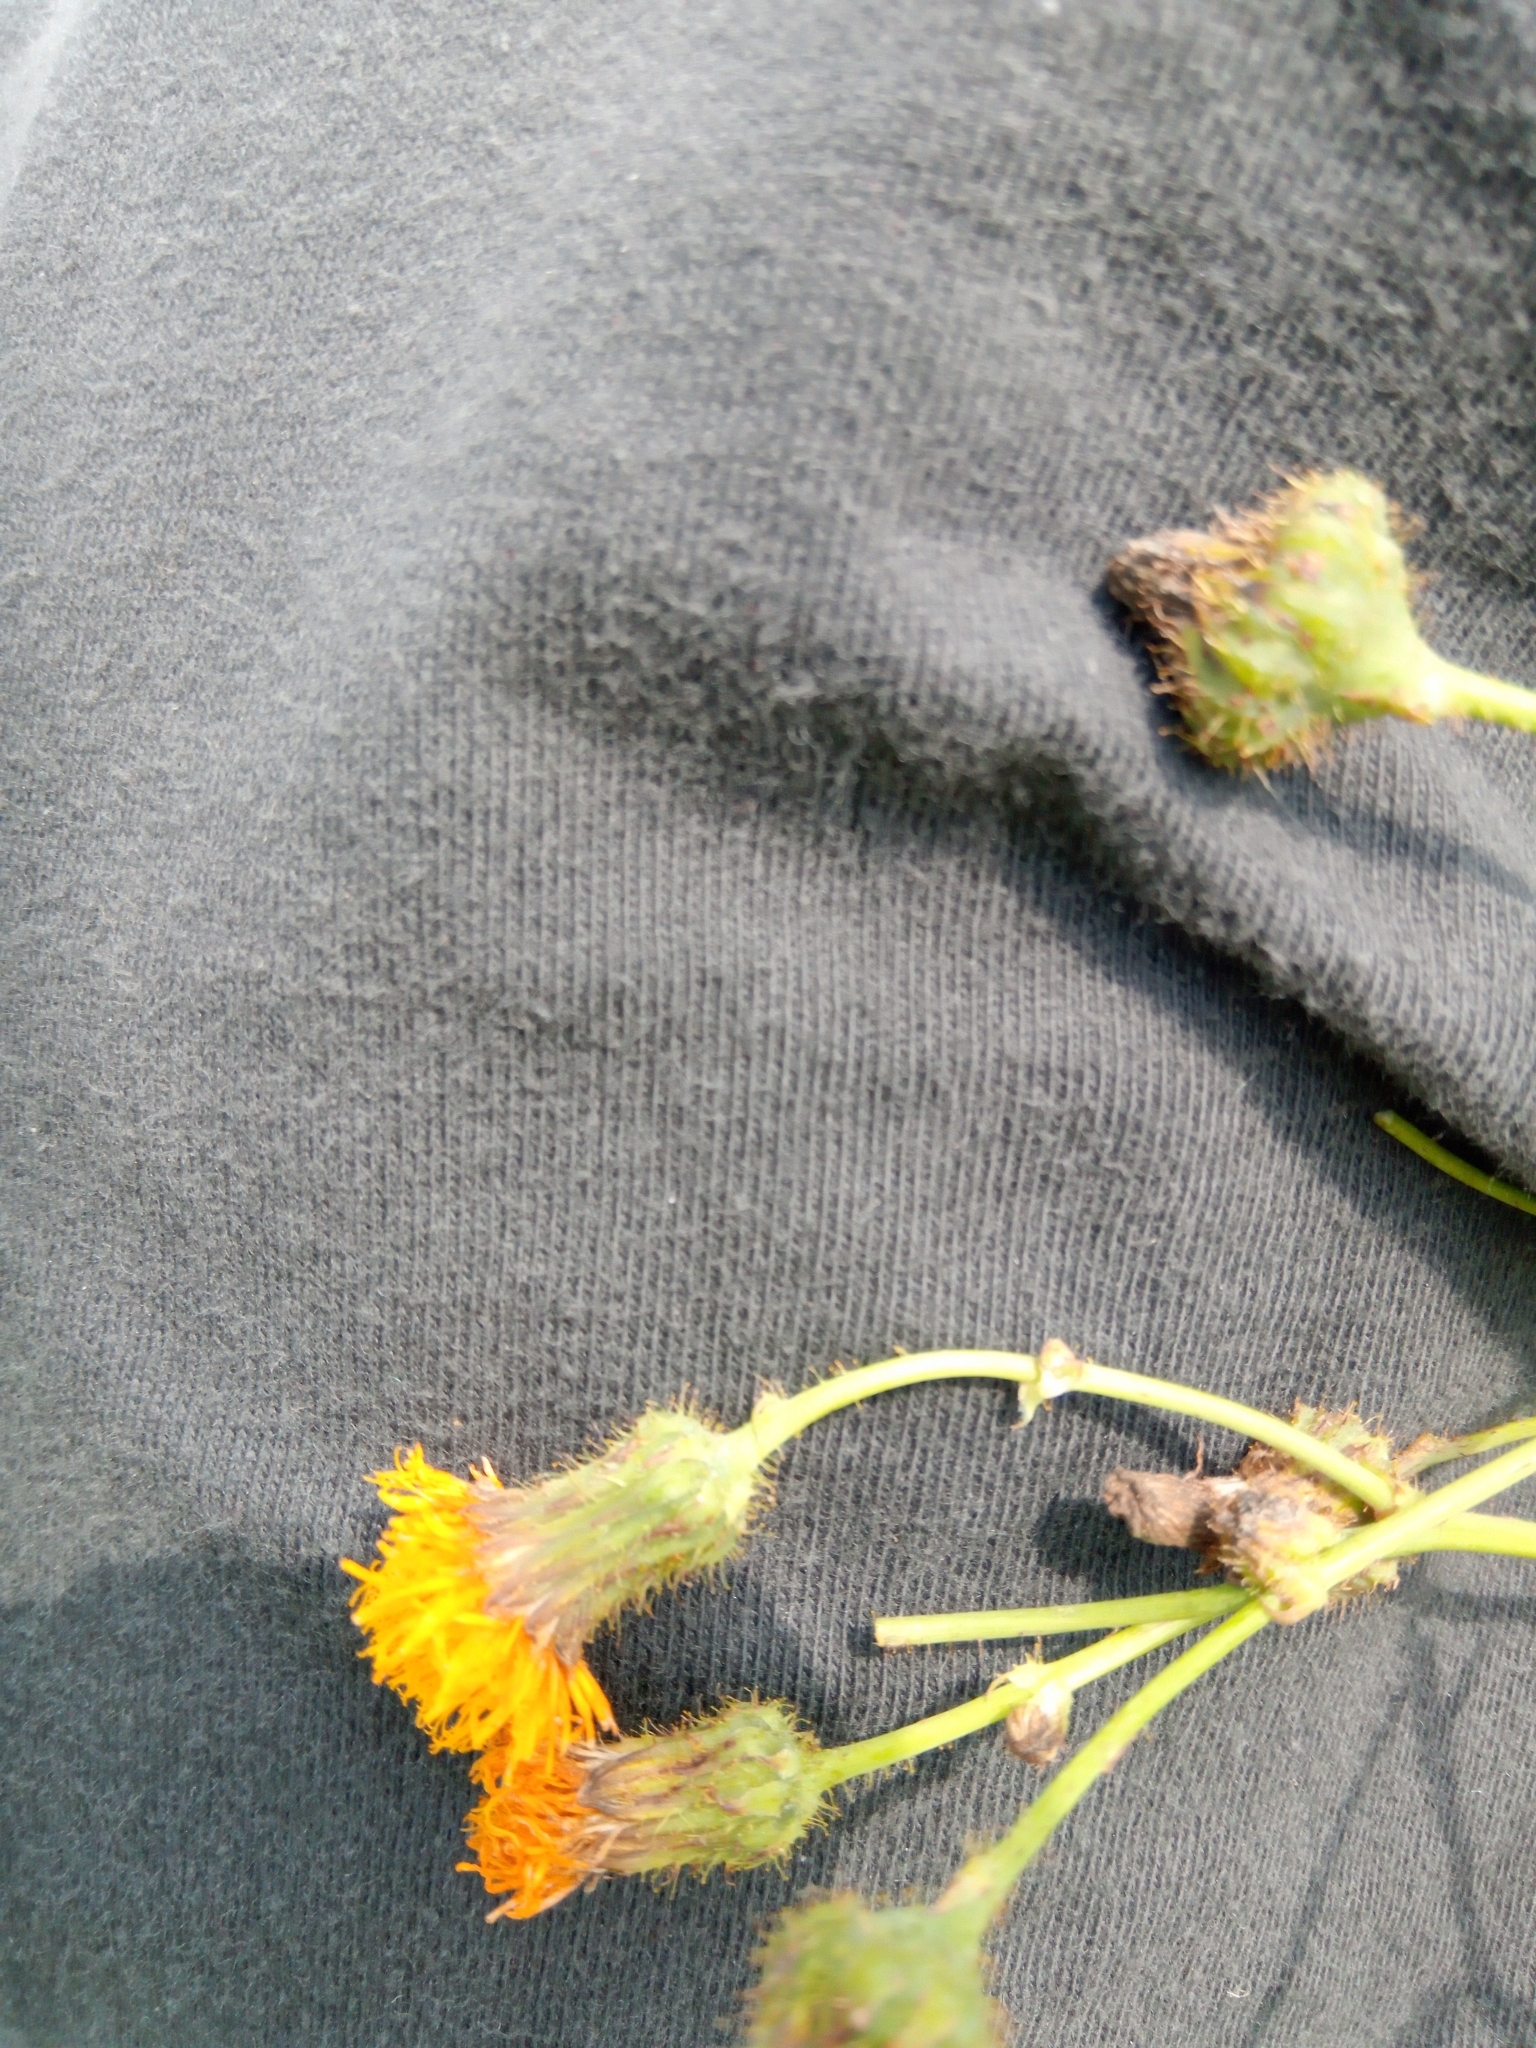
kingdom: Plantae
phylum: Tracheophyta
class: Magnoliopsida
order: Asterales
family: Asteraceae
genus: Sonchus
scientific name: Sonchus arvensis
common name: Perennial sow-thistle
